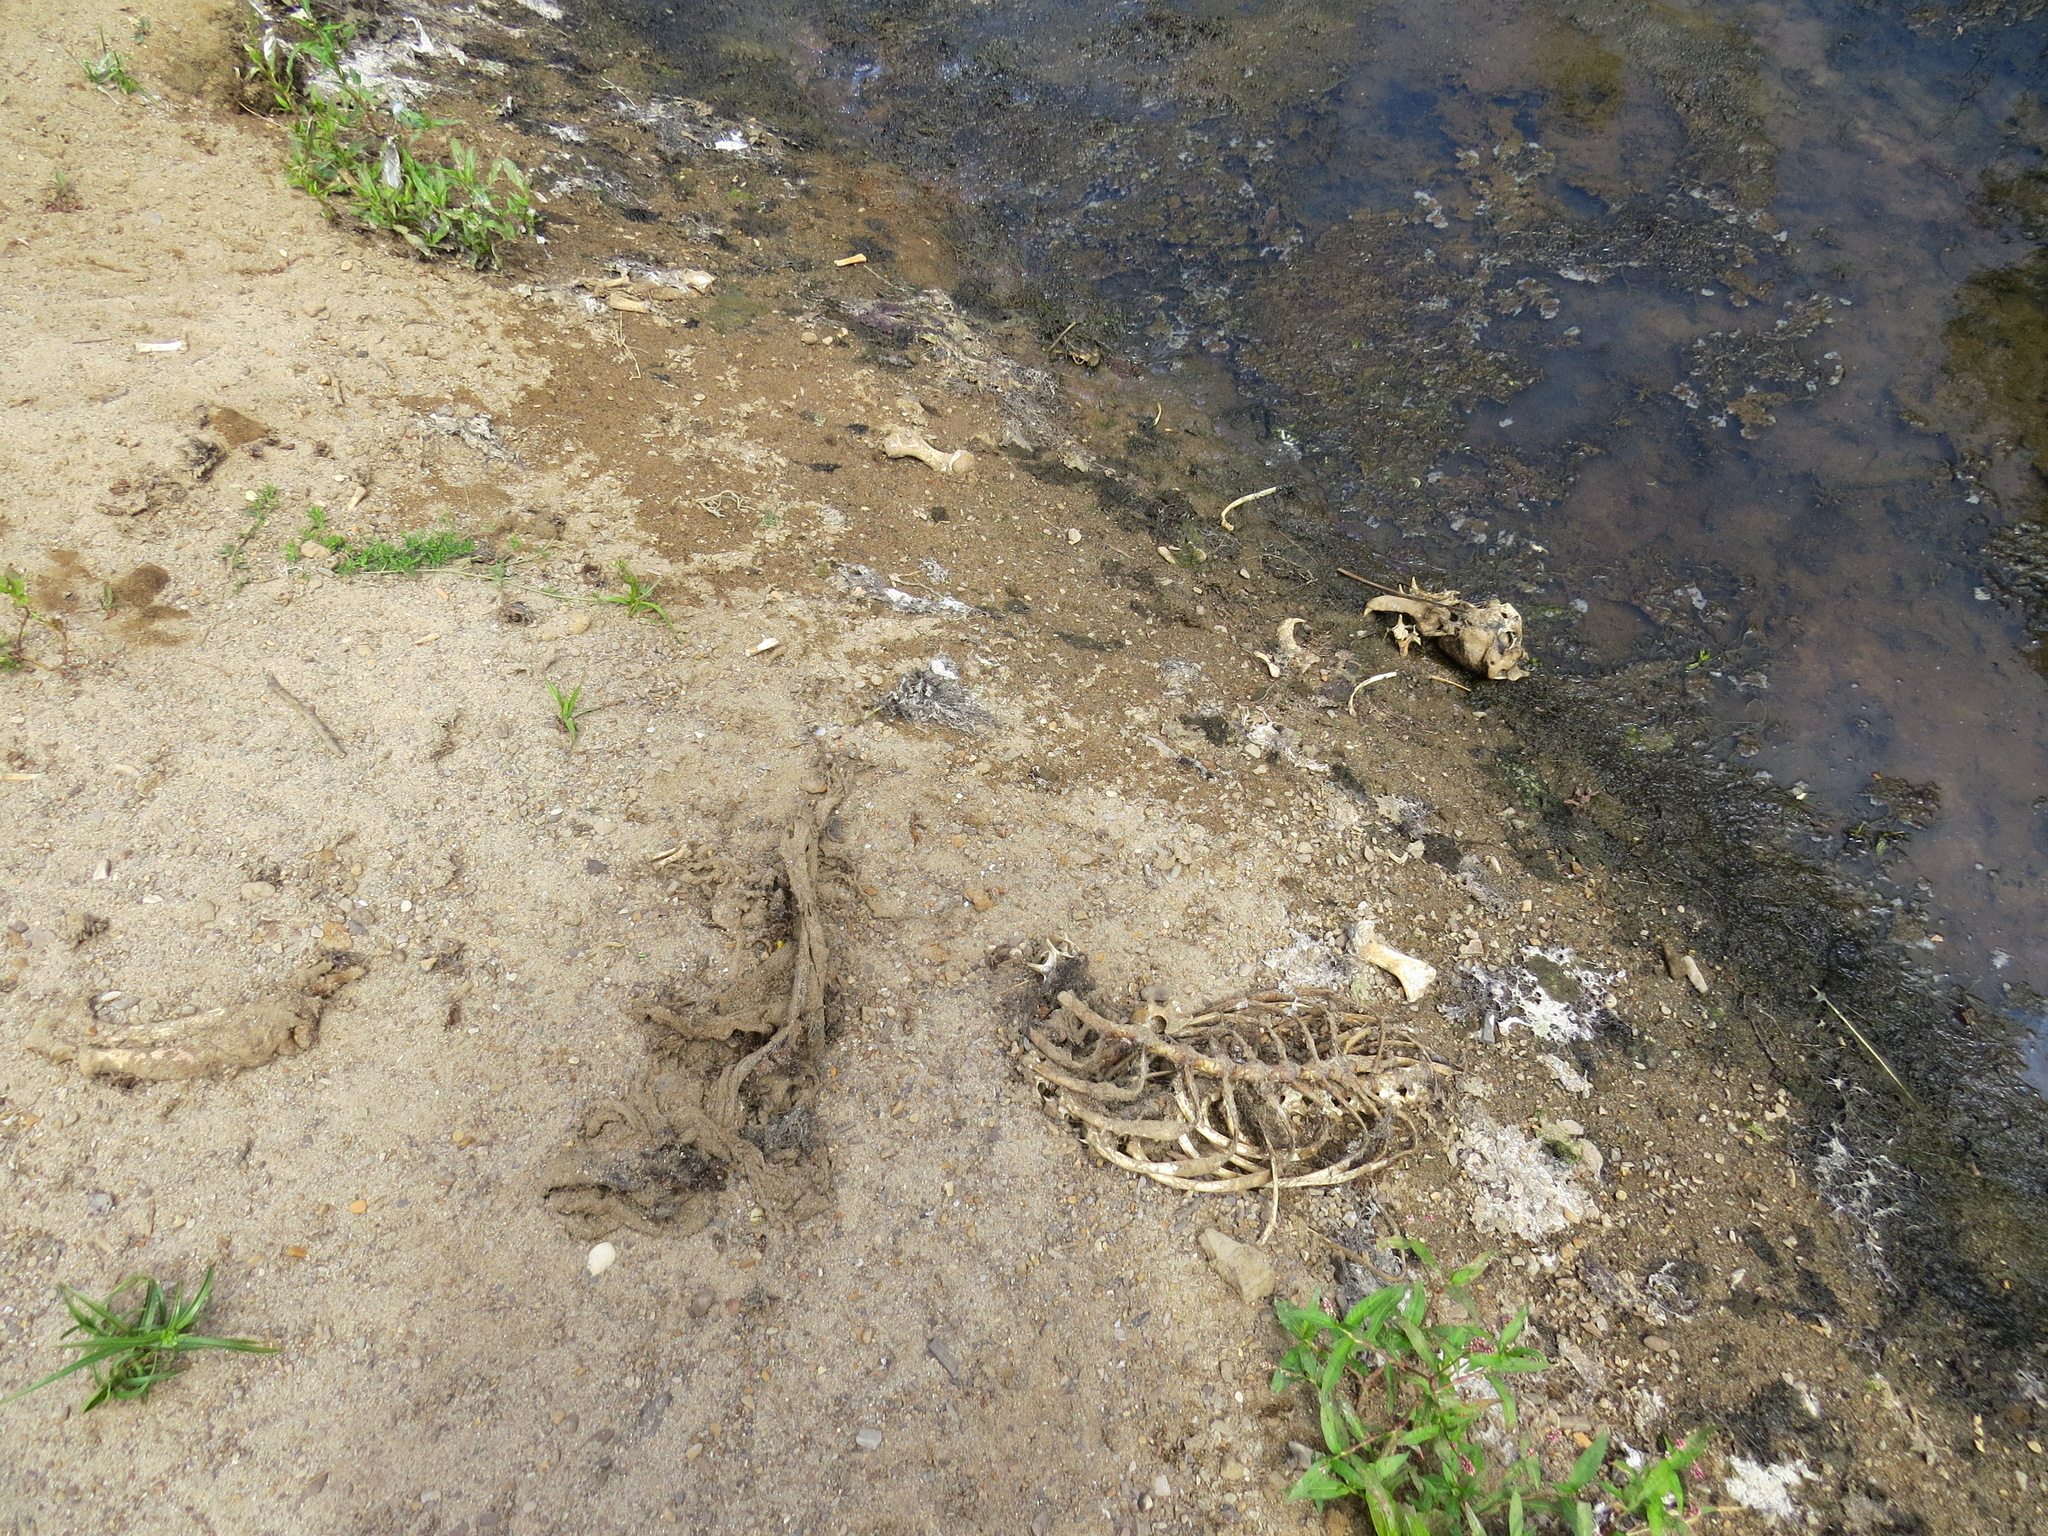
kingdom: Animalia
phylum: Chordata
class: Mammalia
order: Carnivora
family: Otariidae
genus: Zalophus
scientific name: Zalophus californianus
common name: California sea lion
